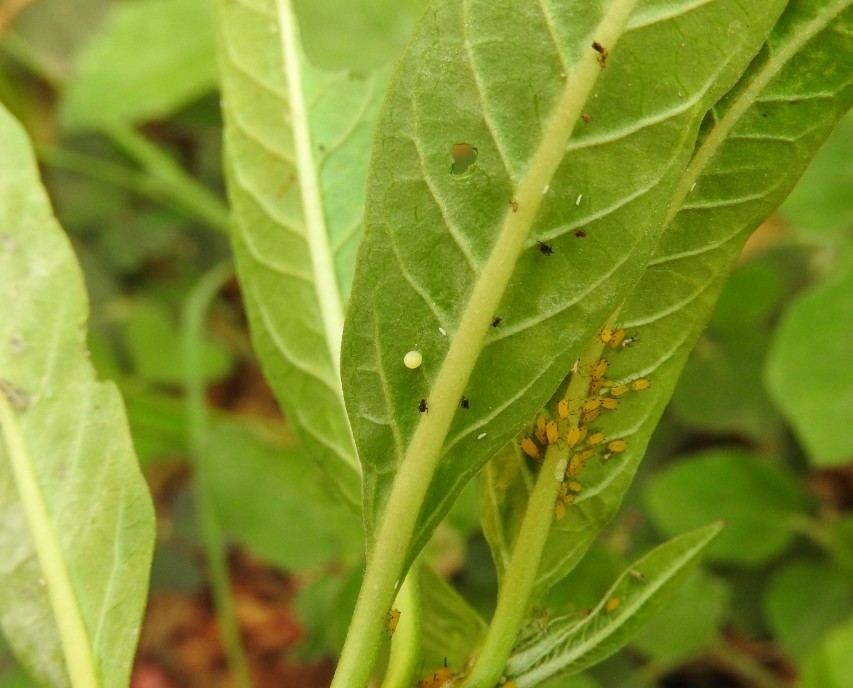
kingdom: Animalia
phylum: Arthropoda
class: Insecta
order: Lepidoptera
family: Nymphalidae
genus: Danaus
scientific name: Danaus plexippus
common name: Monarch
